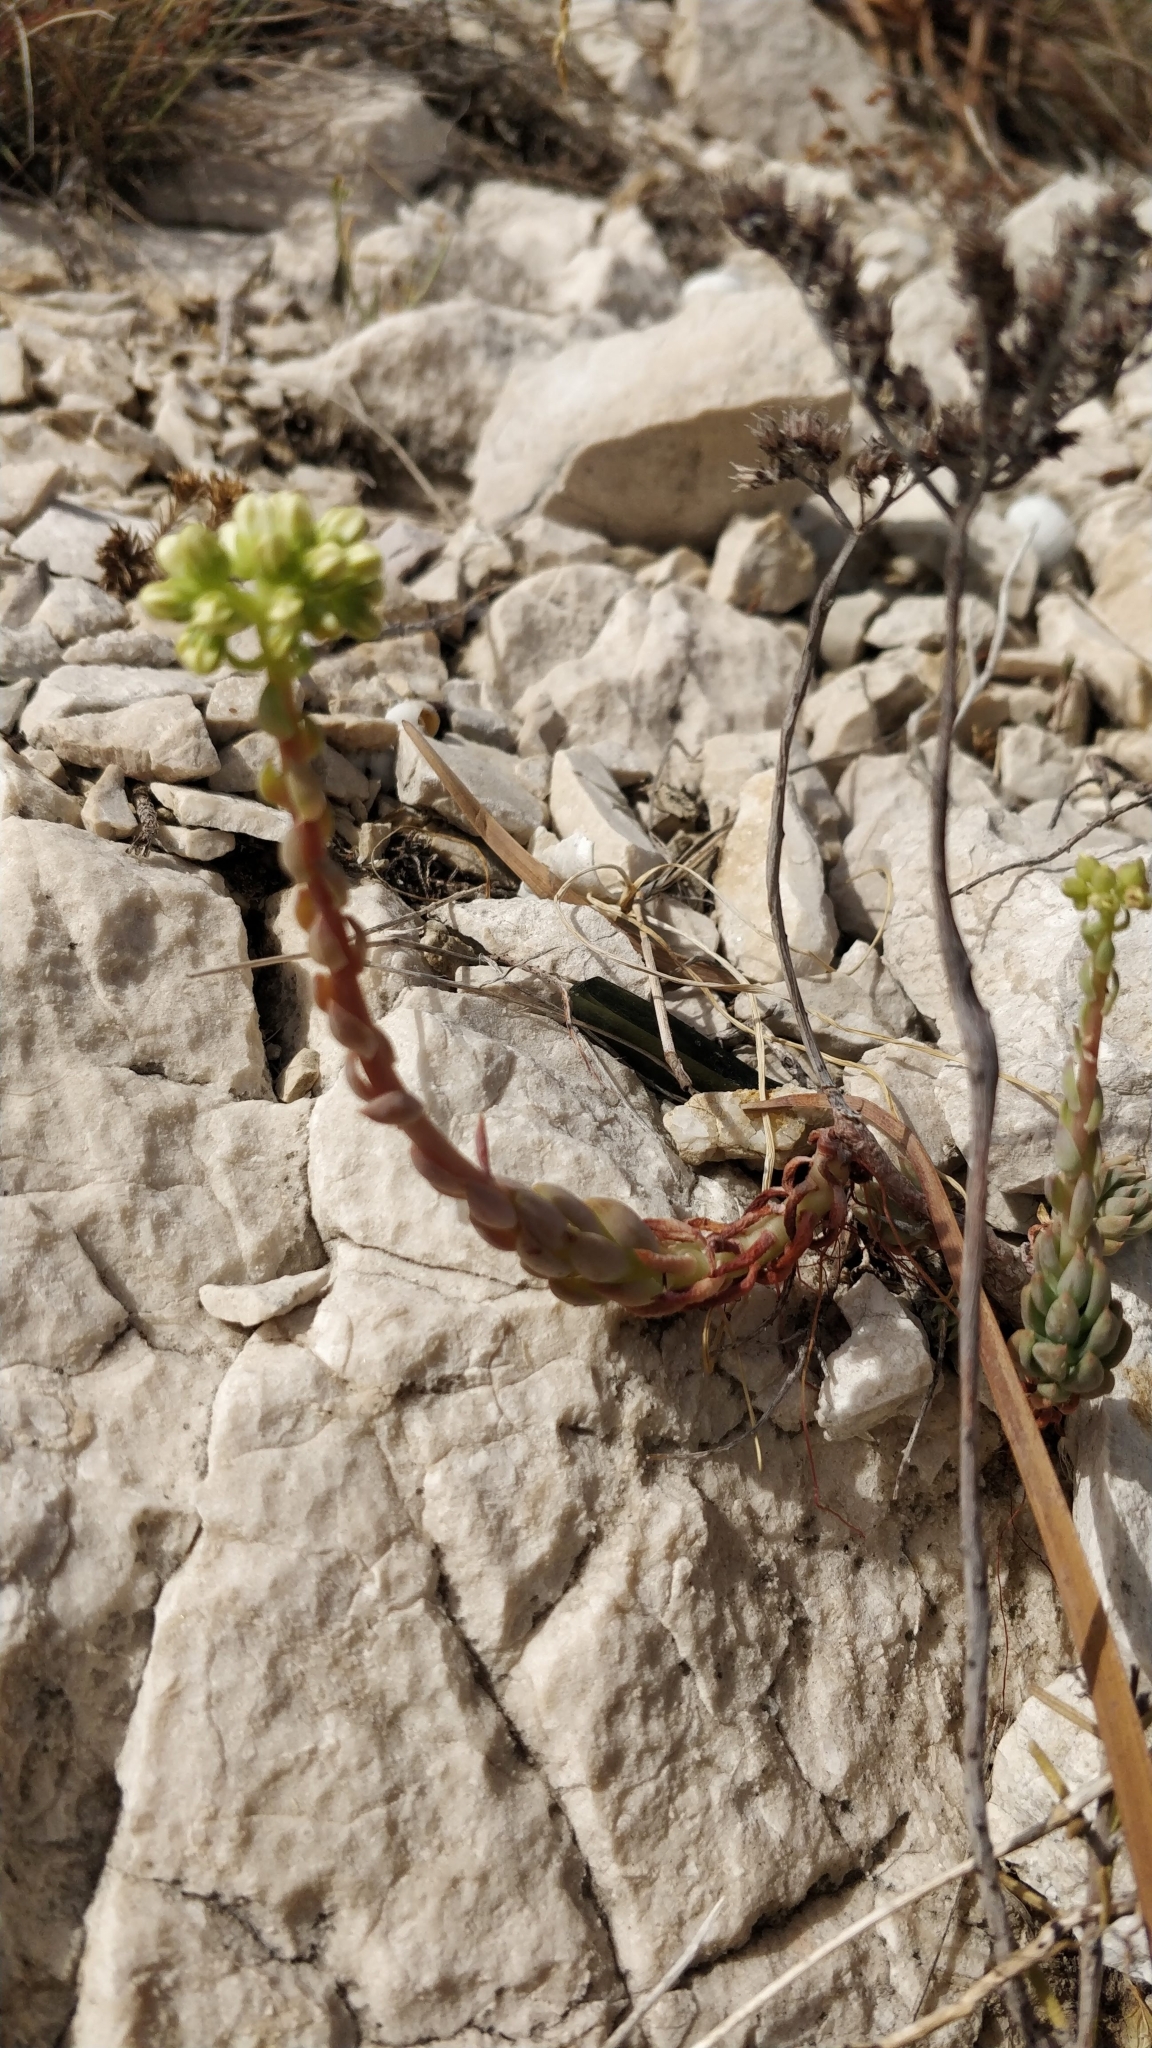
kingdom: Plantae
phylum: Tracheophyta
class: Magnoliopsida
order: Saxifragales
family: Crassulaceae
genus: Petrosedum
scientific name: Petrosedum sediforme
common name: Pale stonecrop
